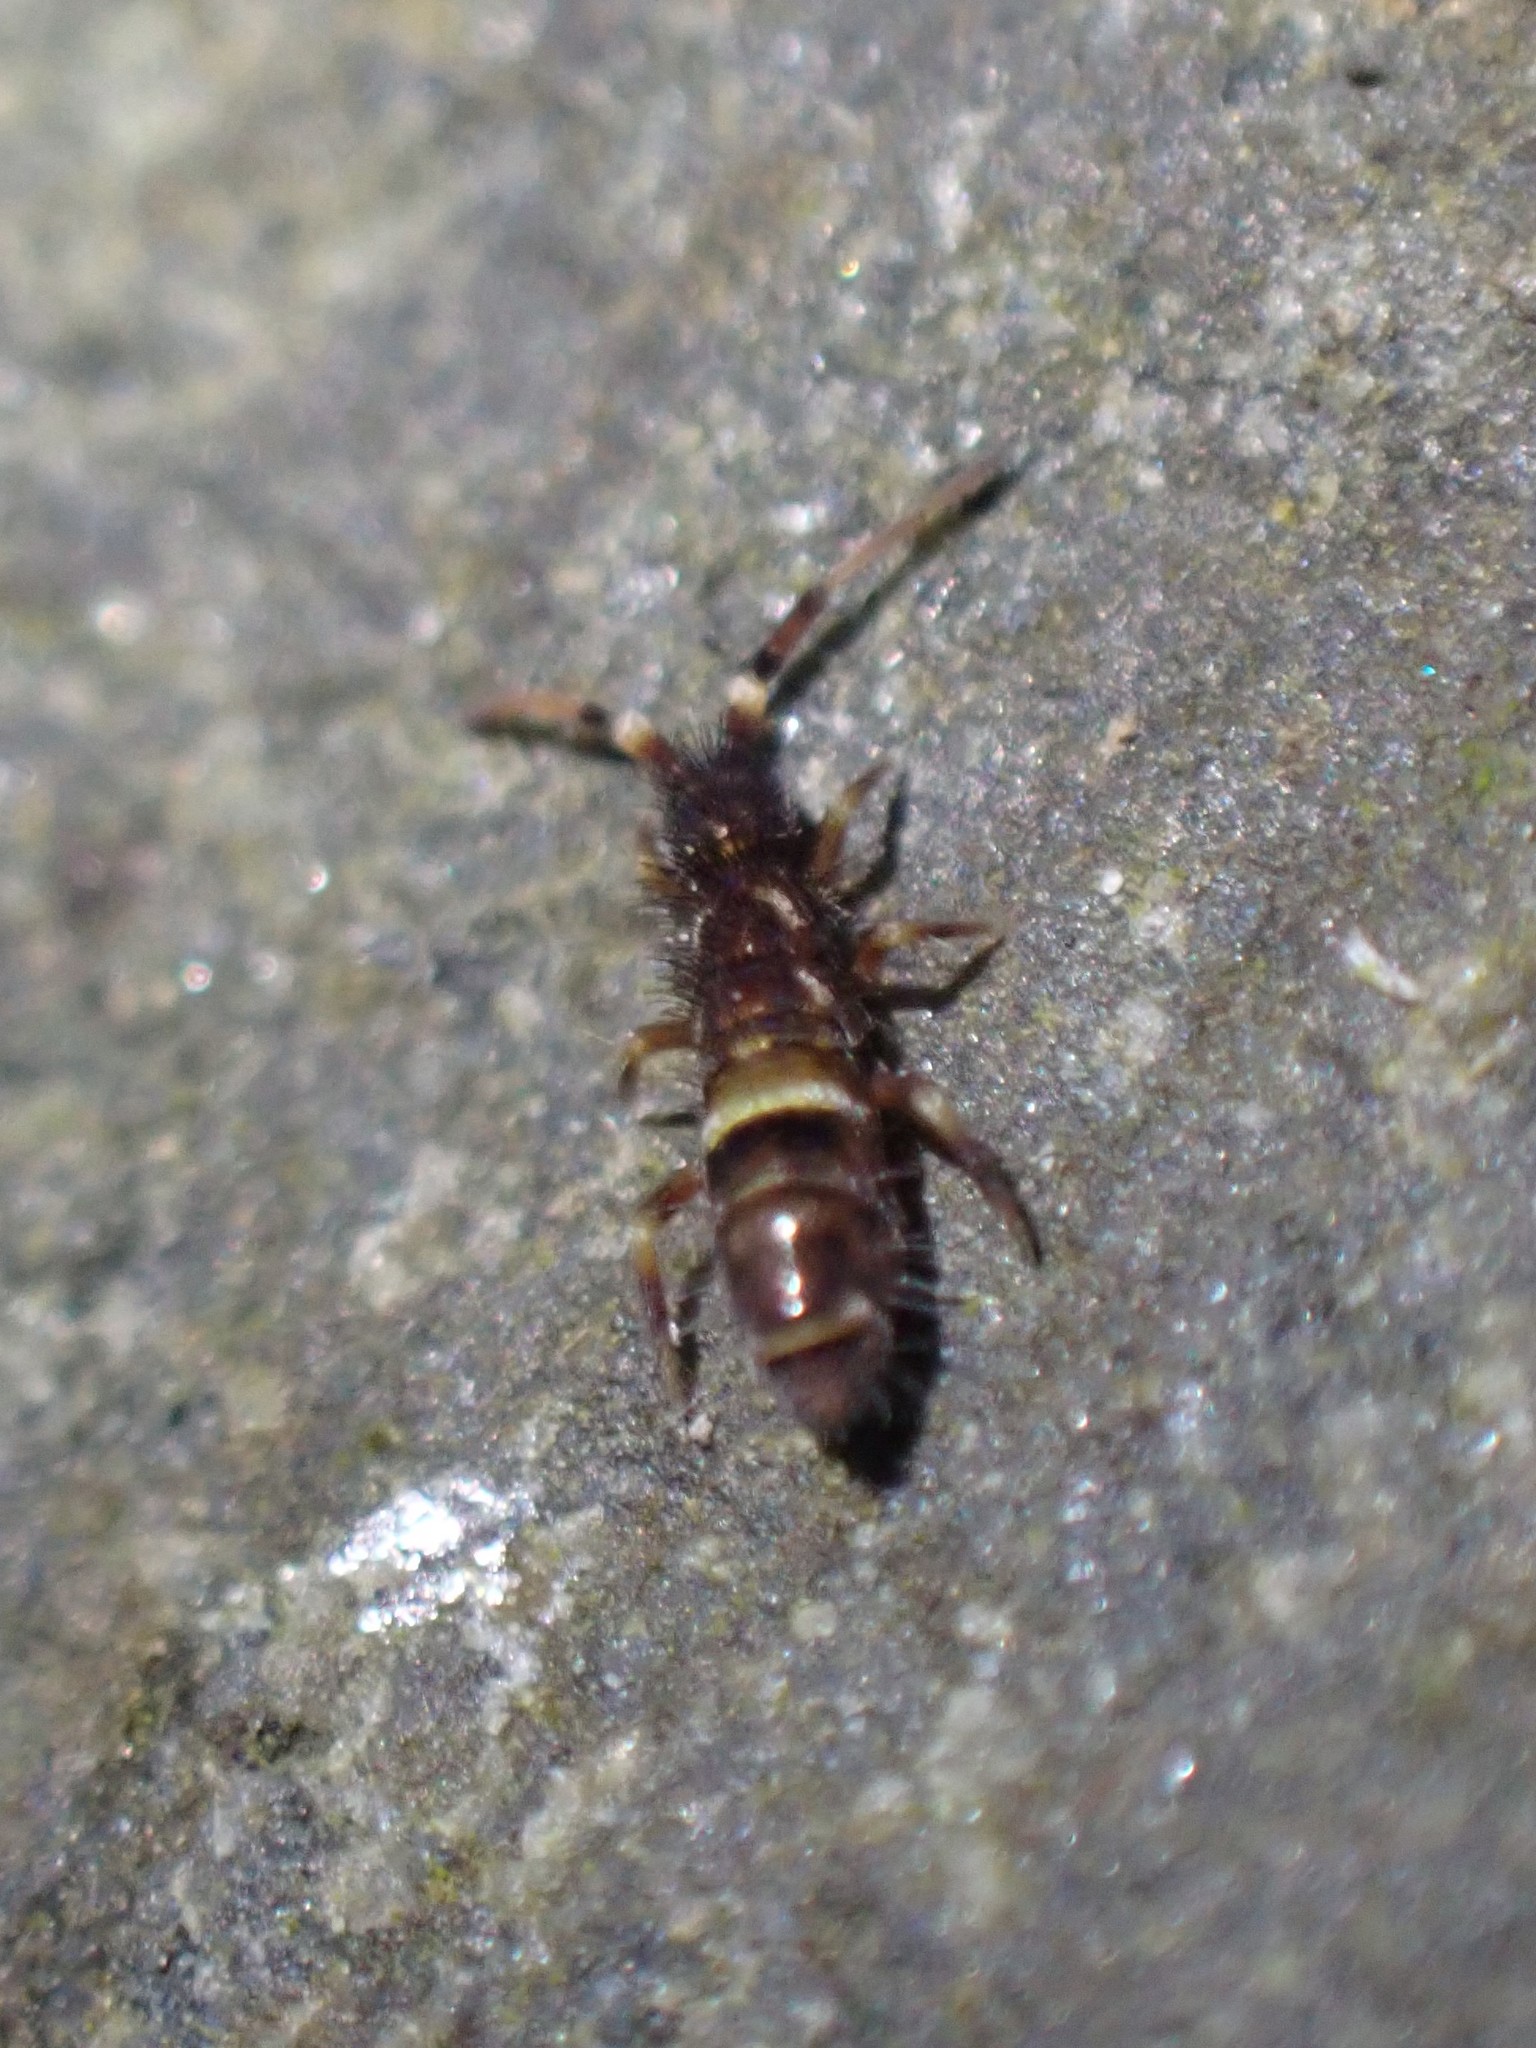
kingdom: Animalia
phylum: Arthropoda
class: Collembola
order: Entomobryomorpha
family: Orchesellidae
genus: Orchesella
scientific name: Orchesella cincta
